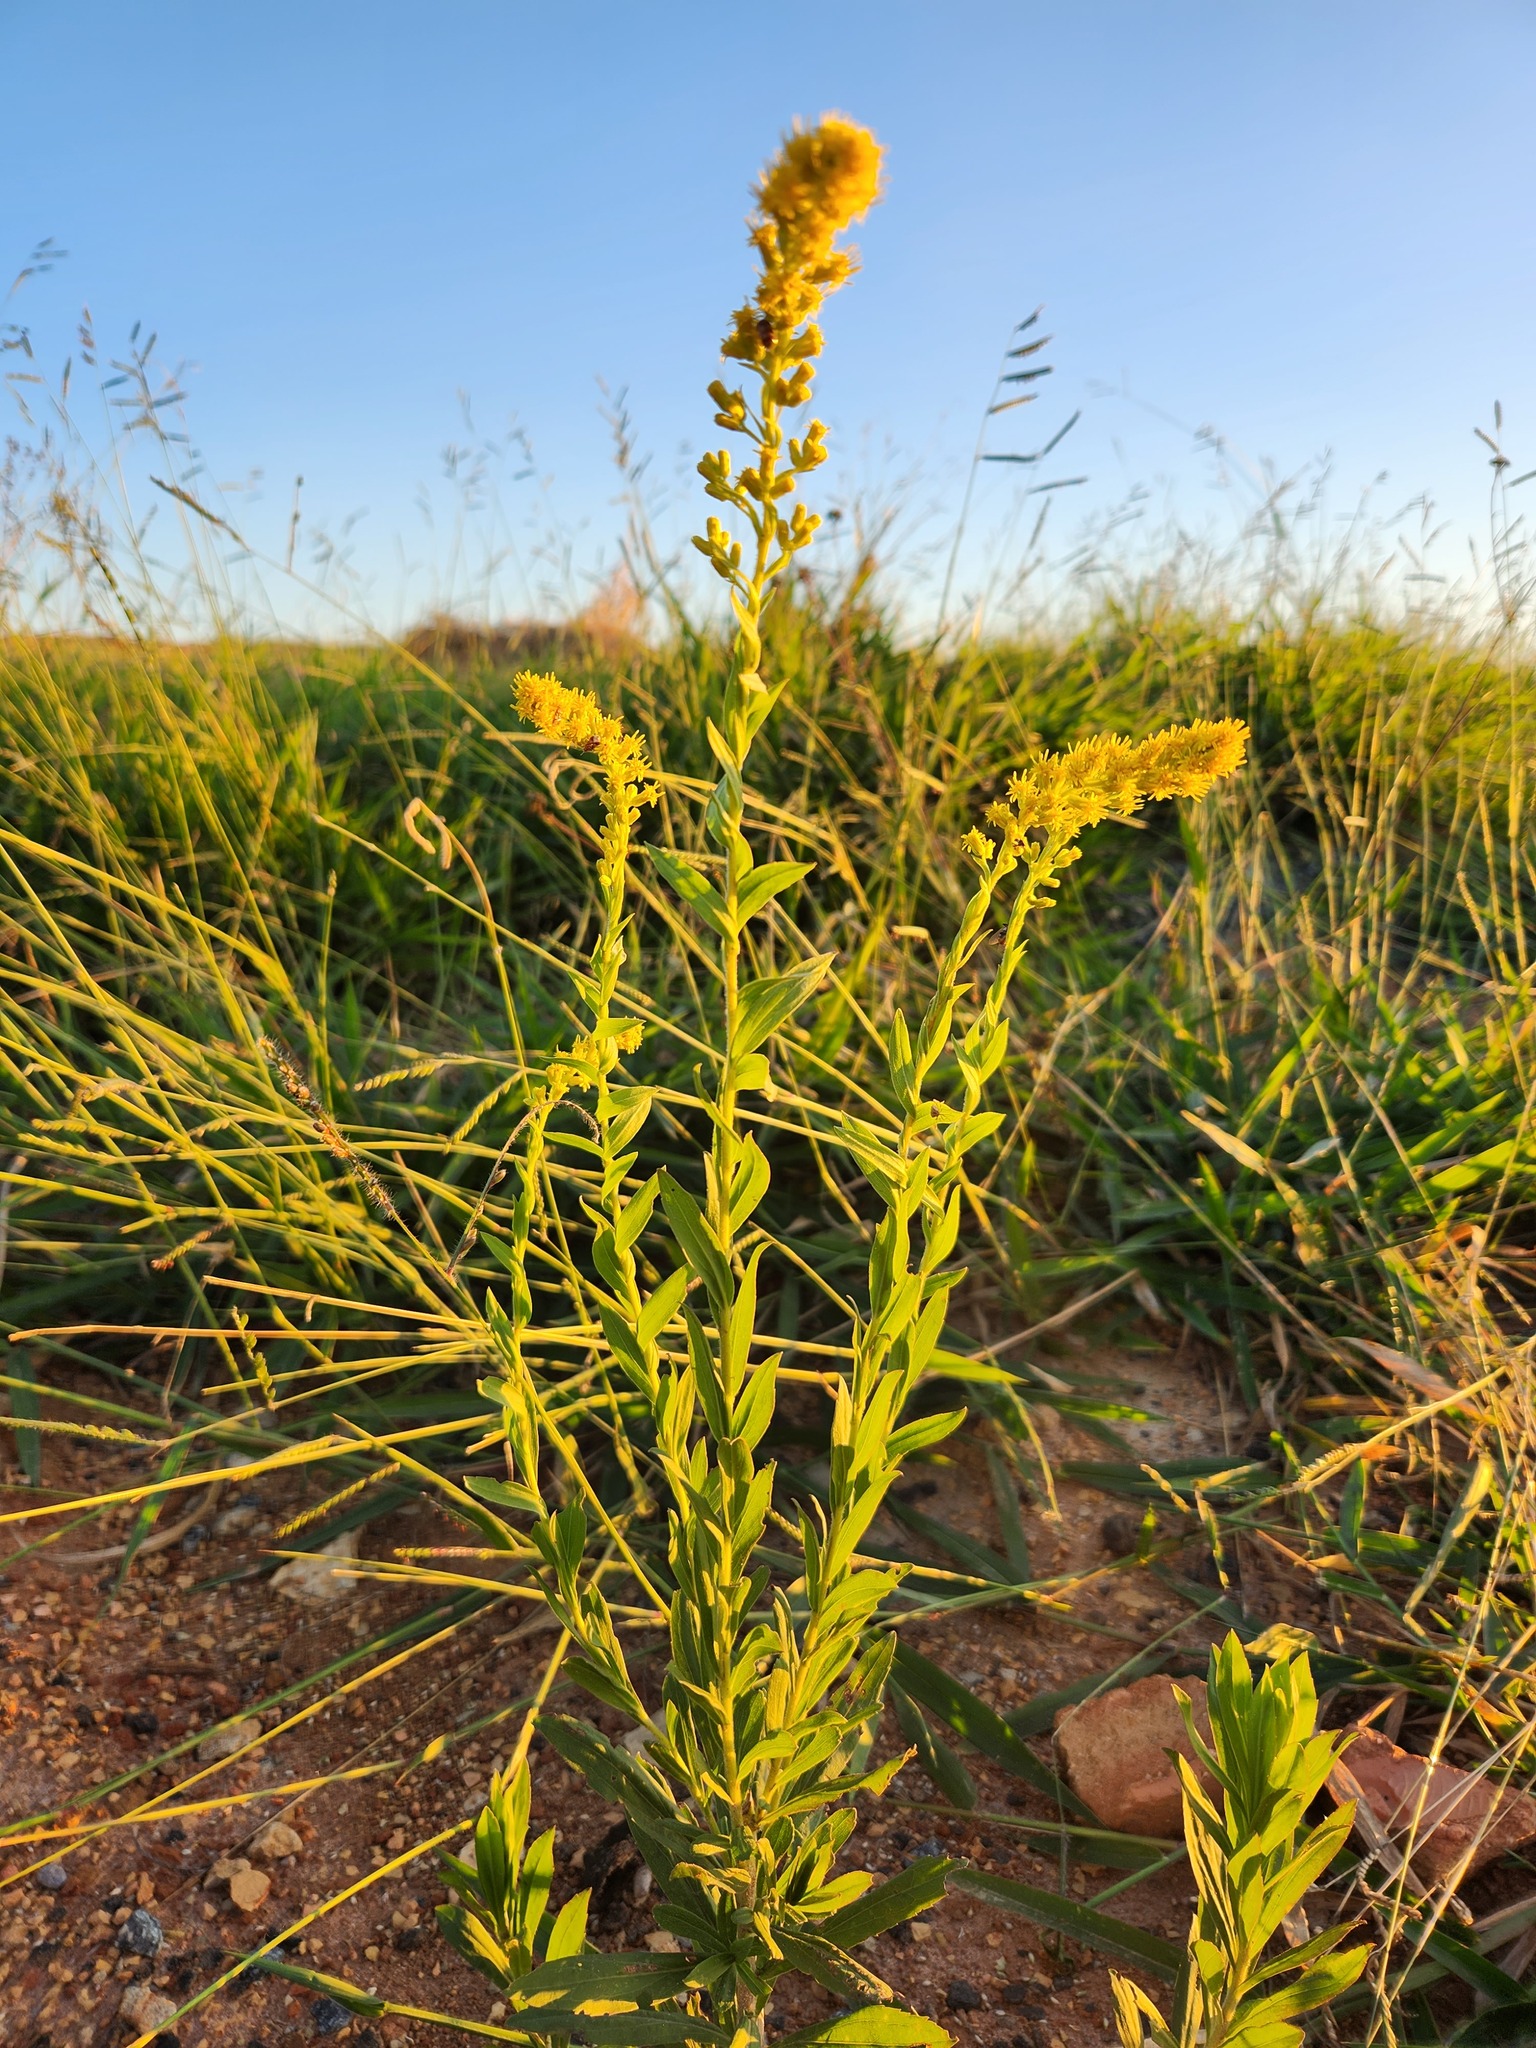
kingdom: Animalia
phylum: Arthropoda
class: Insecta
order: Coleoptera
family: Chrysomelidae
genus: Basiprionota
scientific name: Basiprionota sinuata
